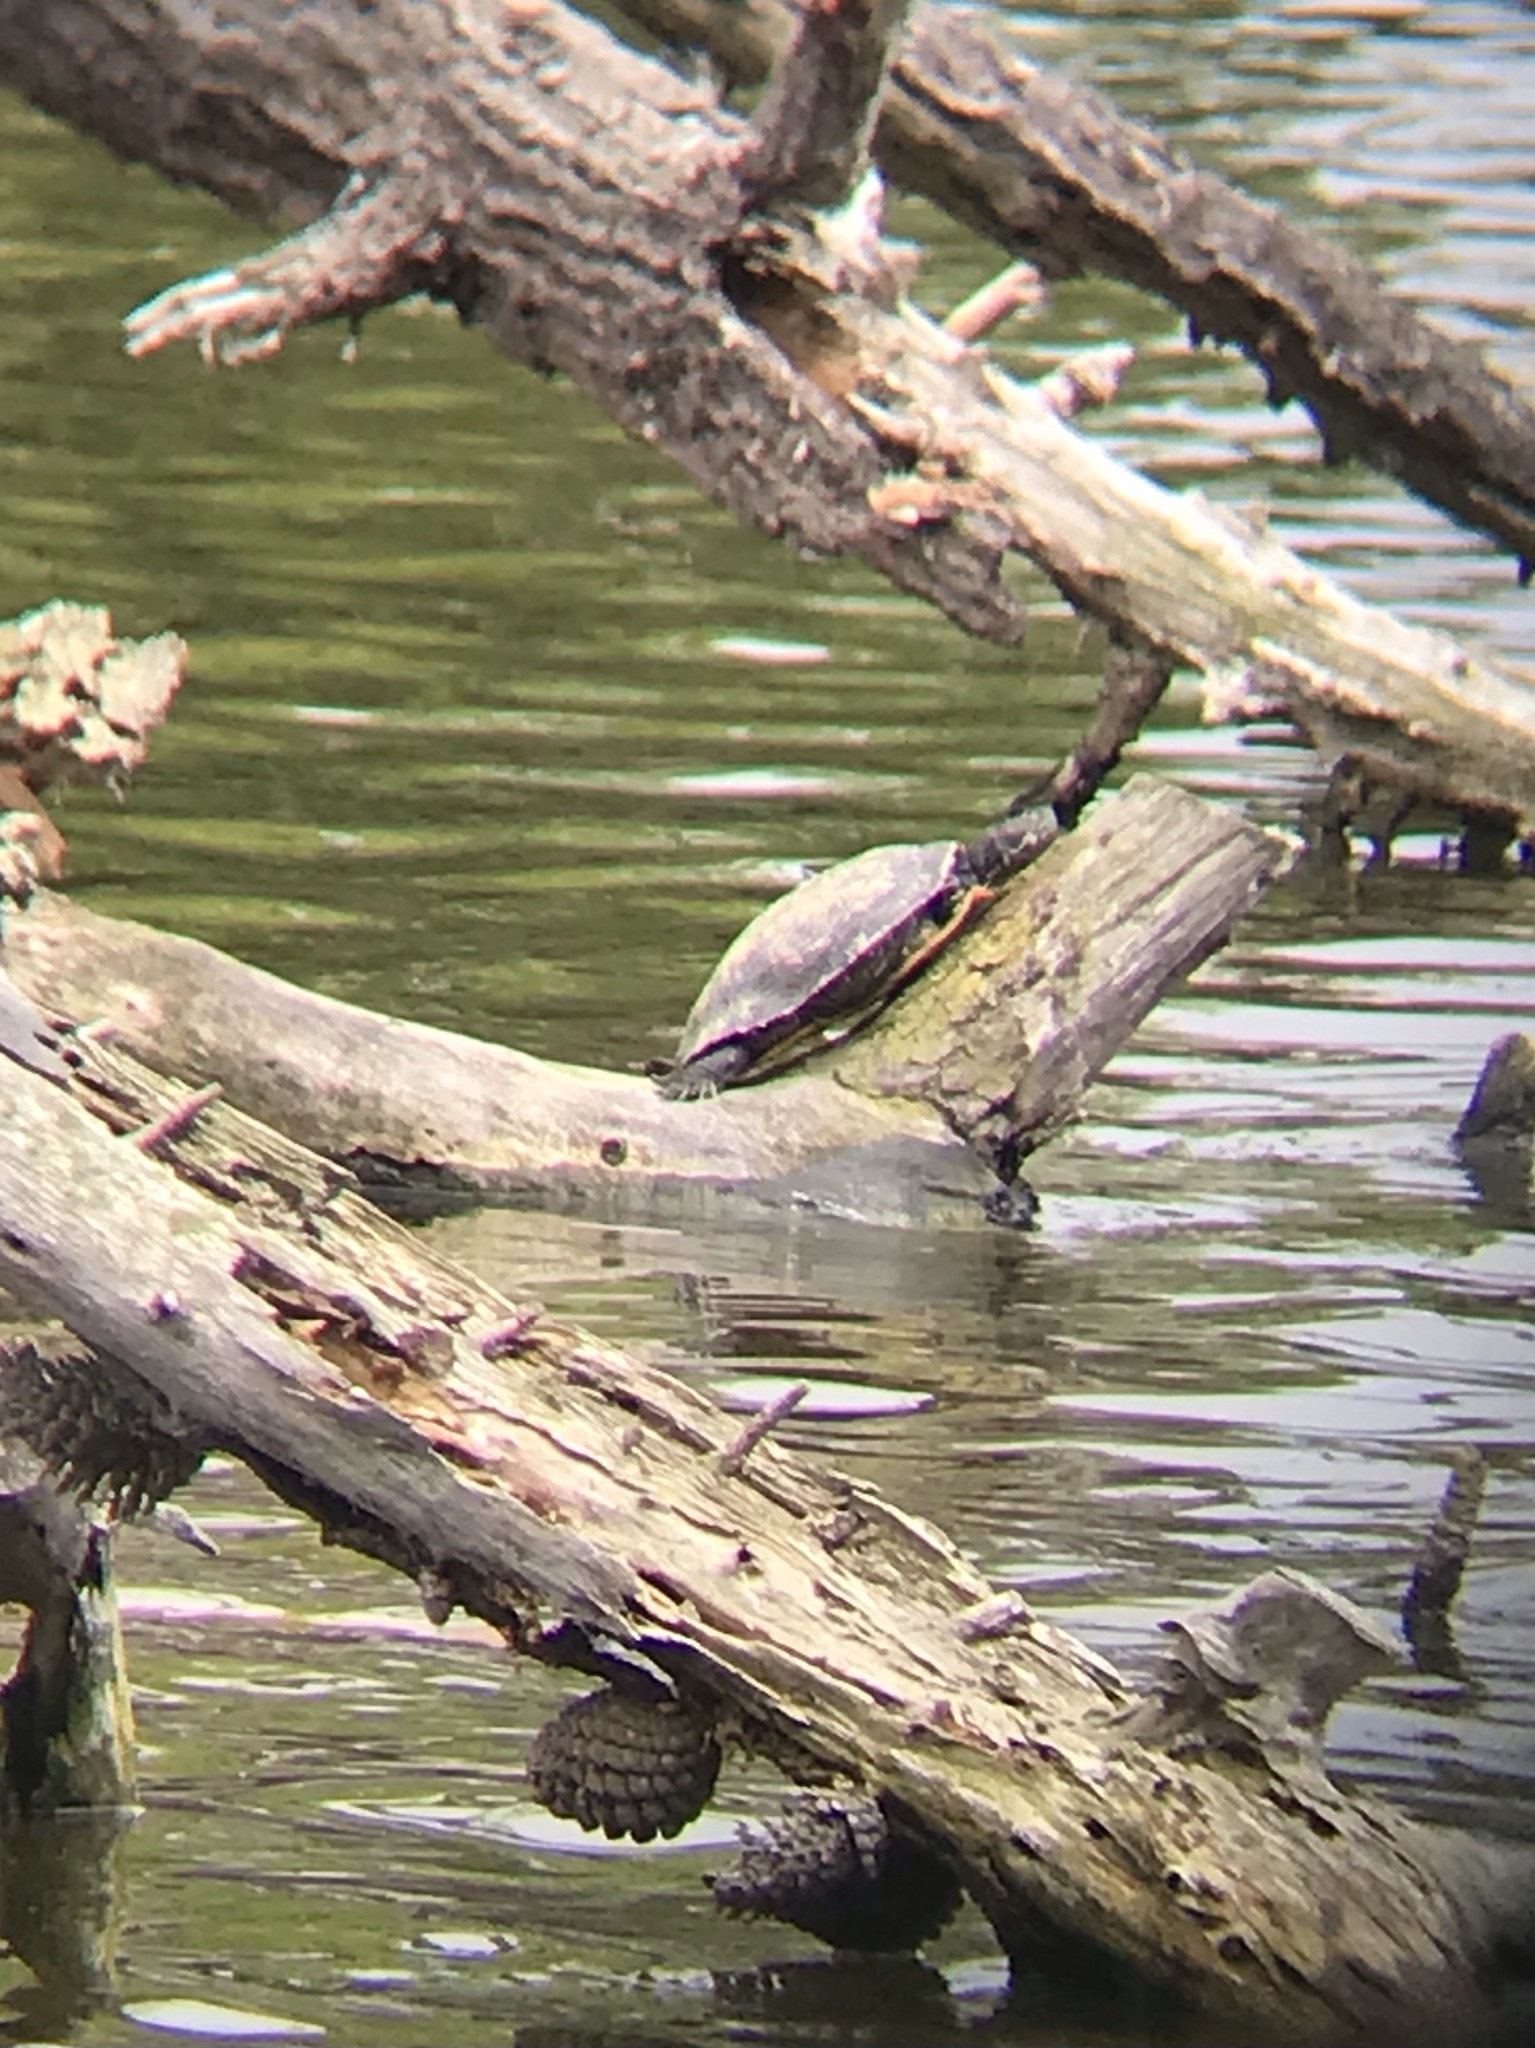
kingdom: Animalia
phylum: Chordata
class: Testudines
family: Emydidae
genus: Trachemys
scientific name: Trachemys scripta
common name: Slider
